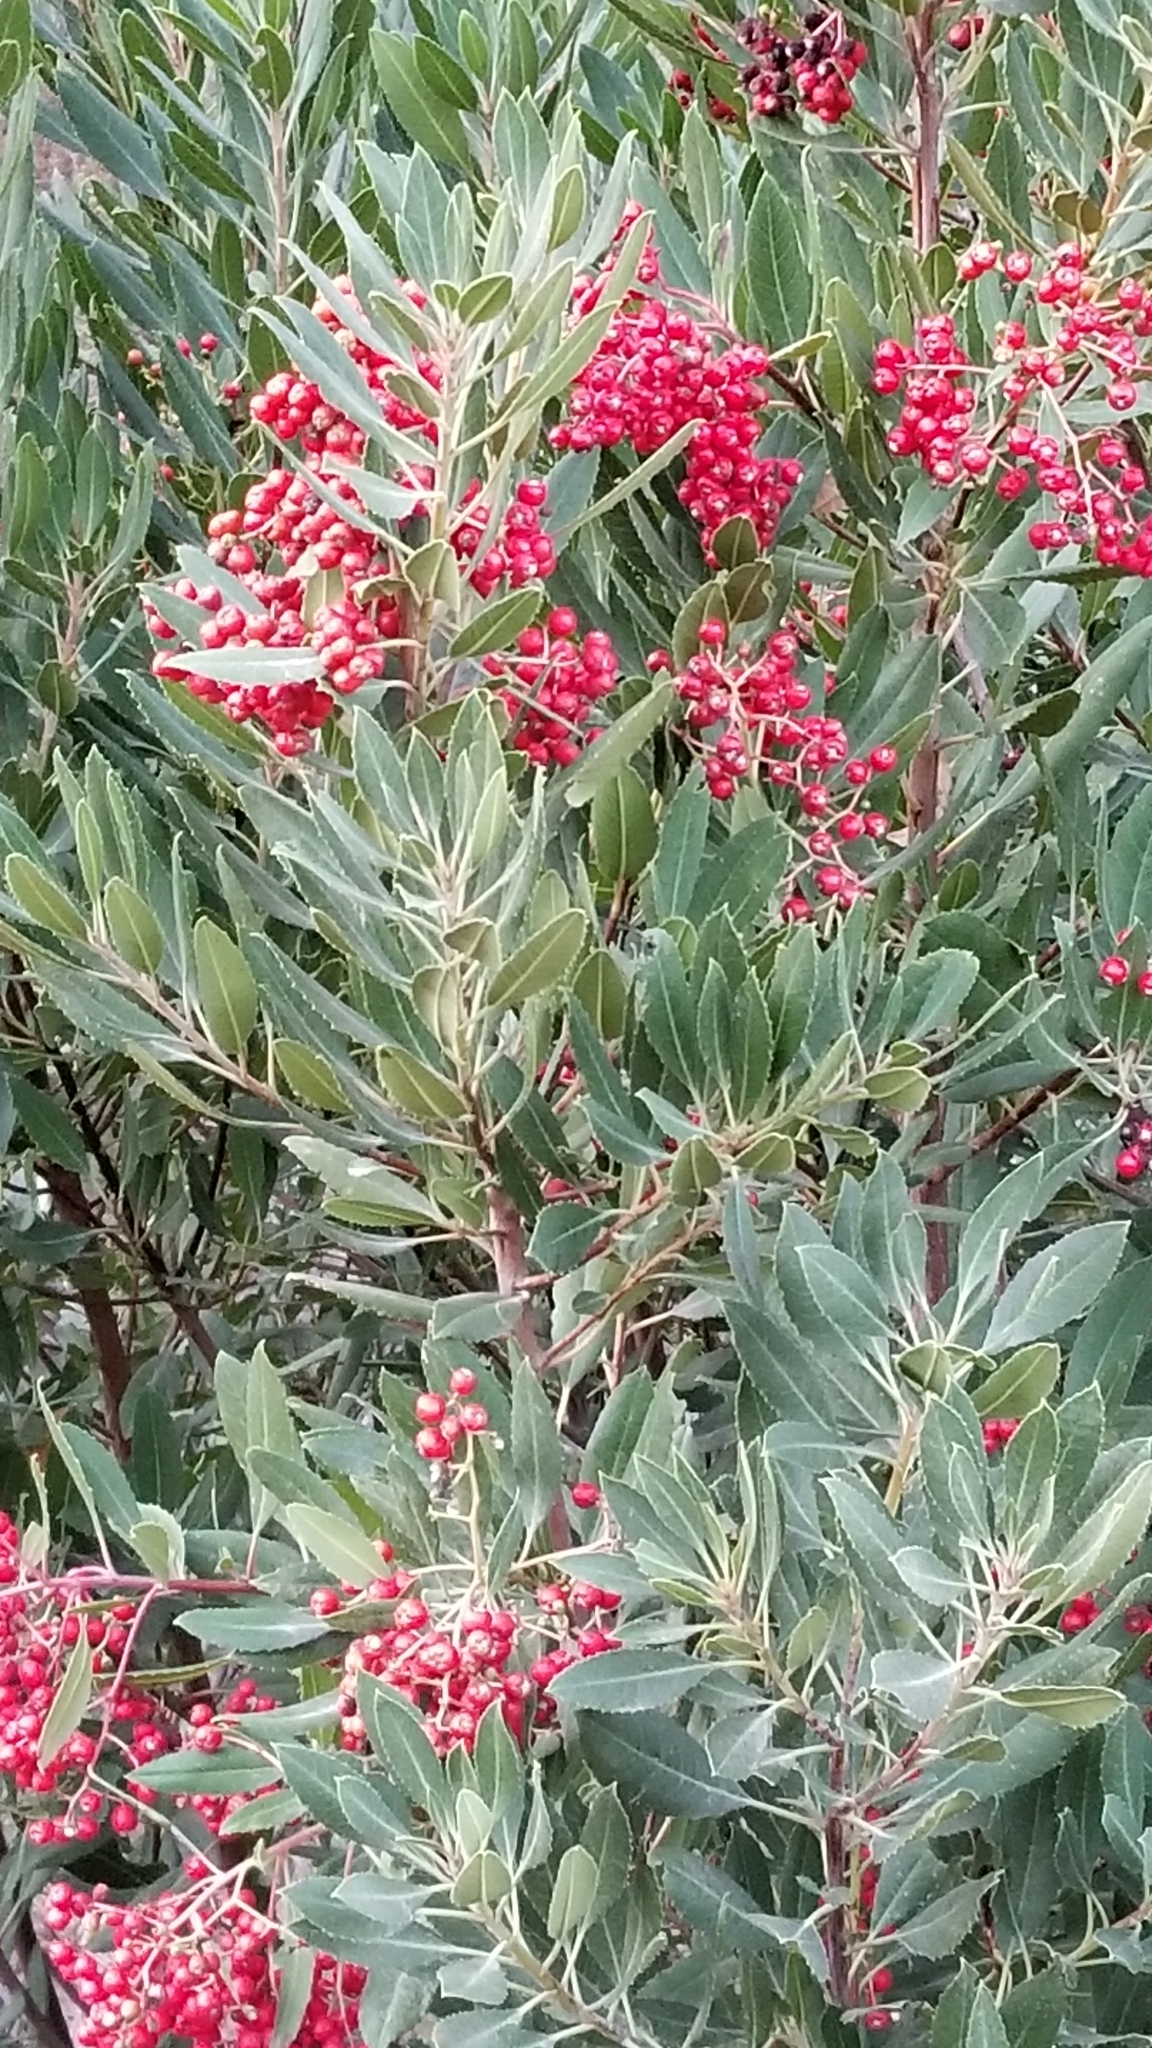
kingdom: Plantae
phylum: Tracheophyta
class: Magnoliopsida
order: Rosales
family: Rosaceae
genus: Heteromeles
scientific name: Heteromeles arbutifolia
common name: California-holly
